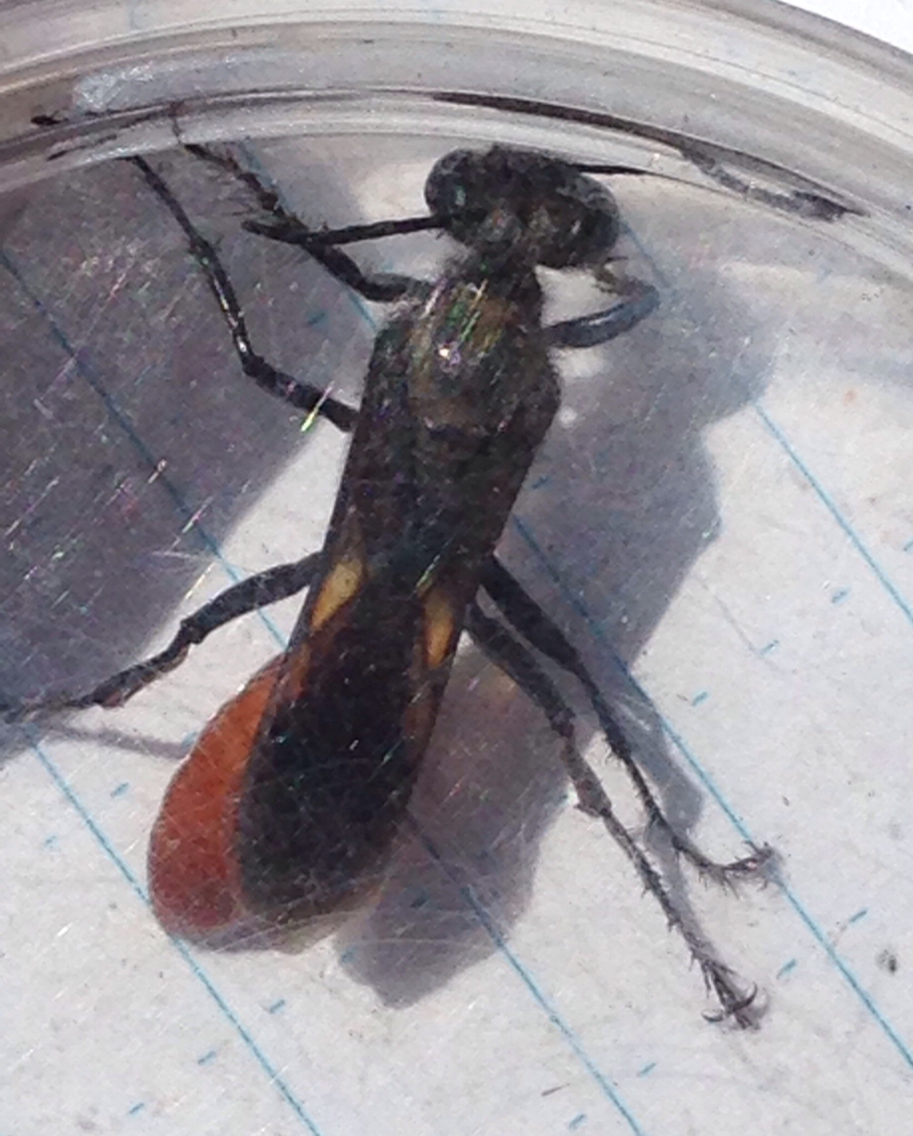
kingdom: Animalia
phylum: Arthropoda
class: Insecta
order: Hymenoptera
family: Sphecidae
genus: Sphex
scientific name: Sphex lucae
